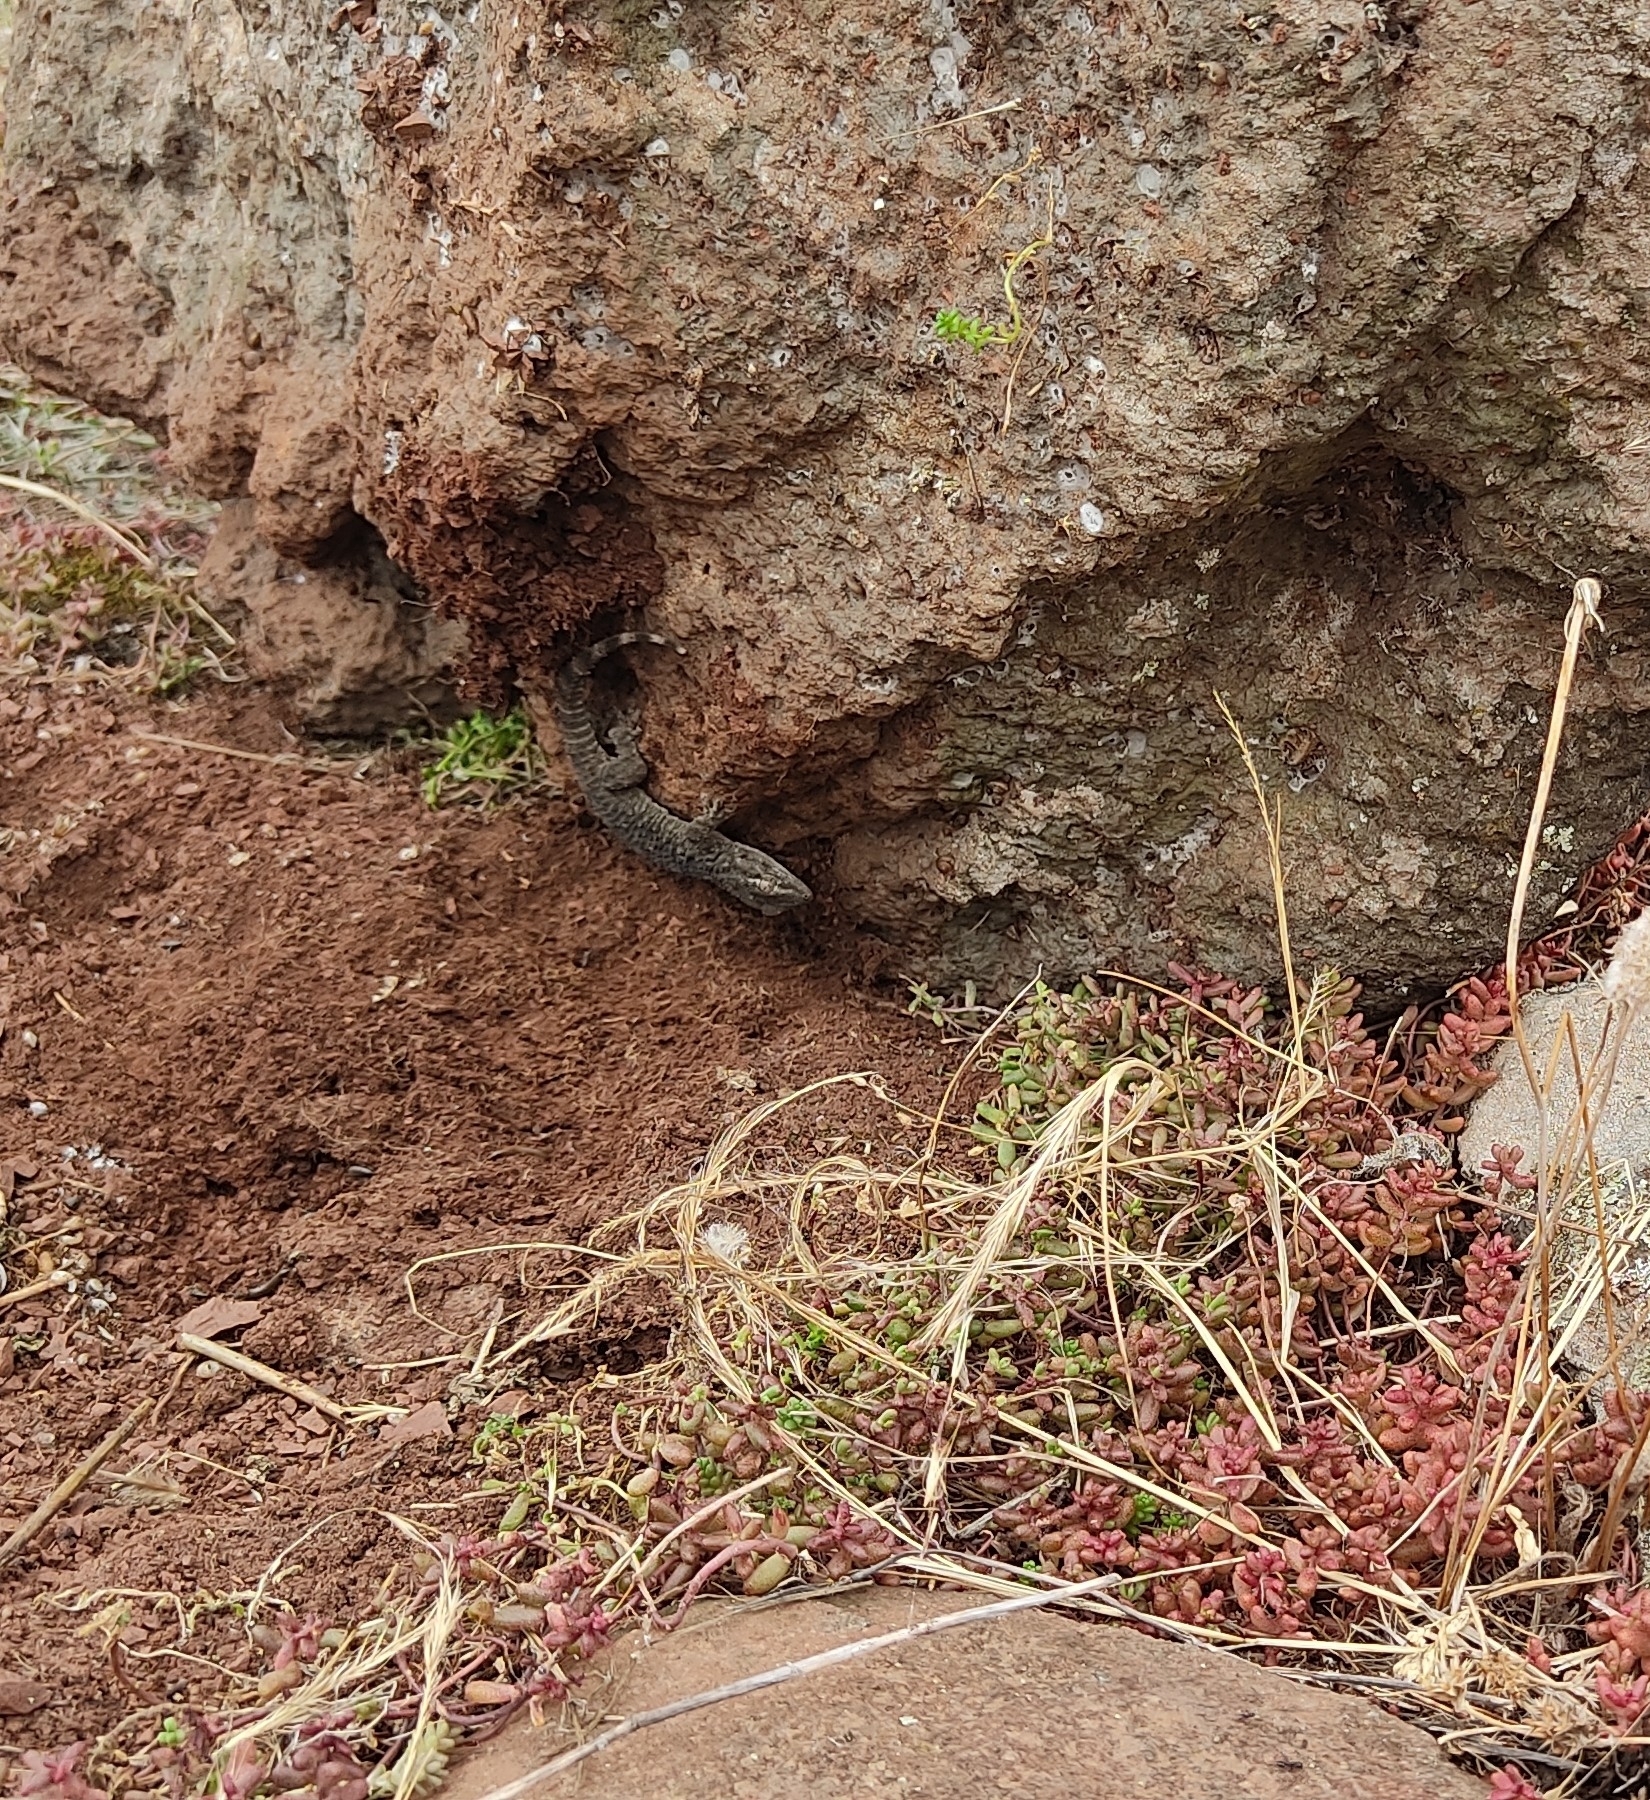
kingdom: Animalia
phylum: Chordata
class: Squamata
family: Phyllodactylidae
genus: Tarentola
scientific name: Tarentola mauritanica
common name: Moorish gecko
